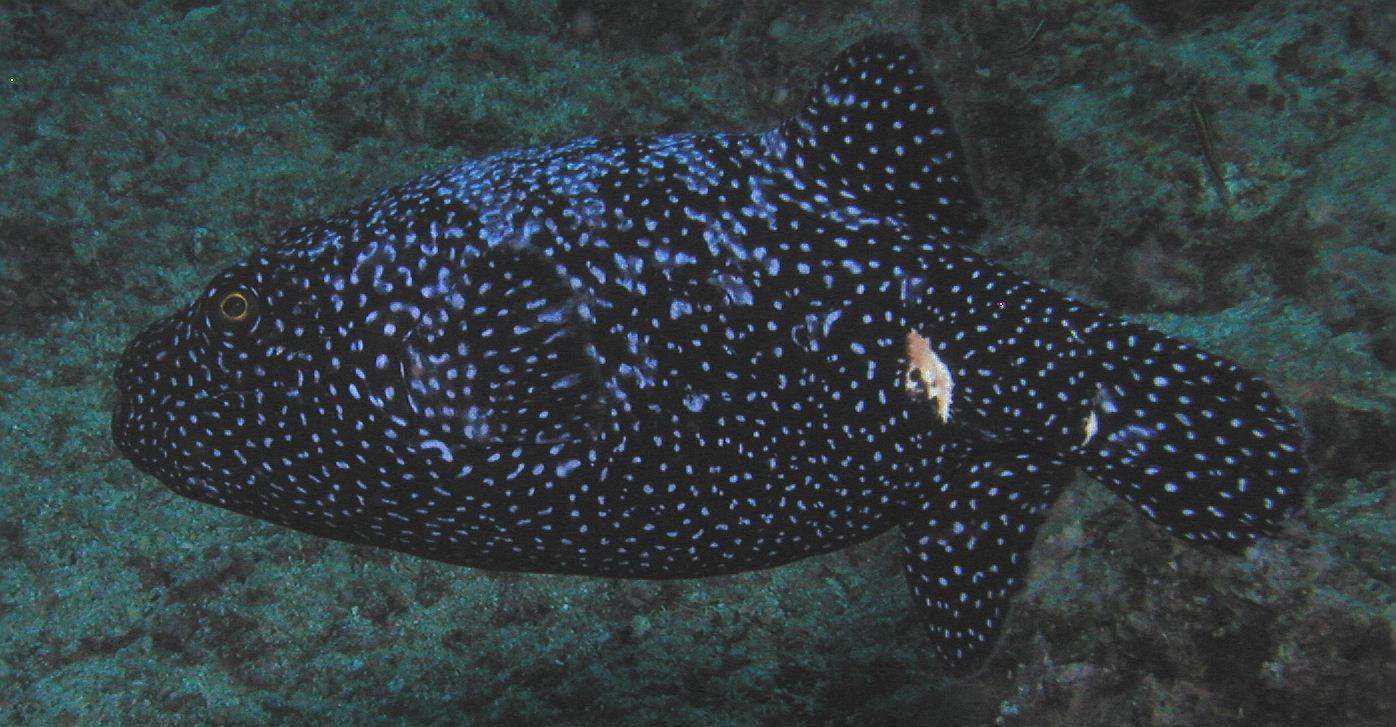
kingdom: Animalia
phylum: Chordata
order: Tetraodontiformes
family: Tetraodontidae
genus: Arothron
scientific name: Arothron meleagris
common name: Guinea-fowl pufferfish
